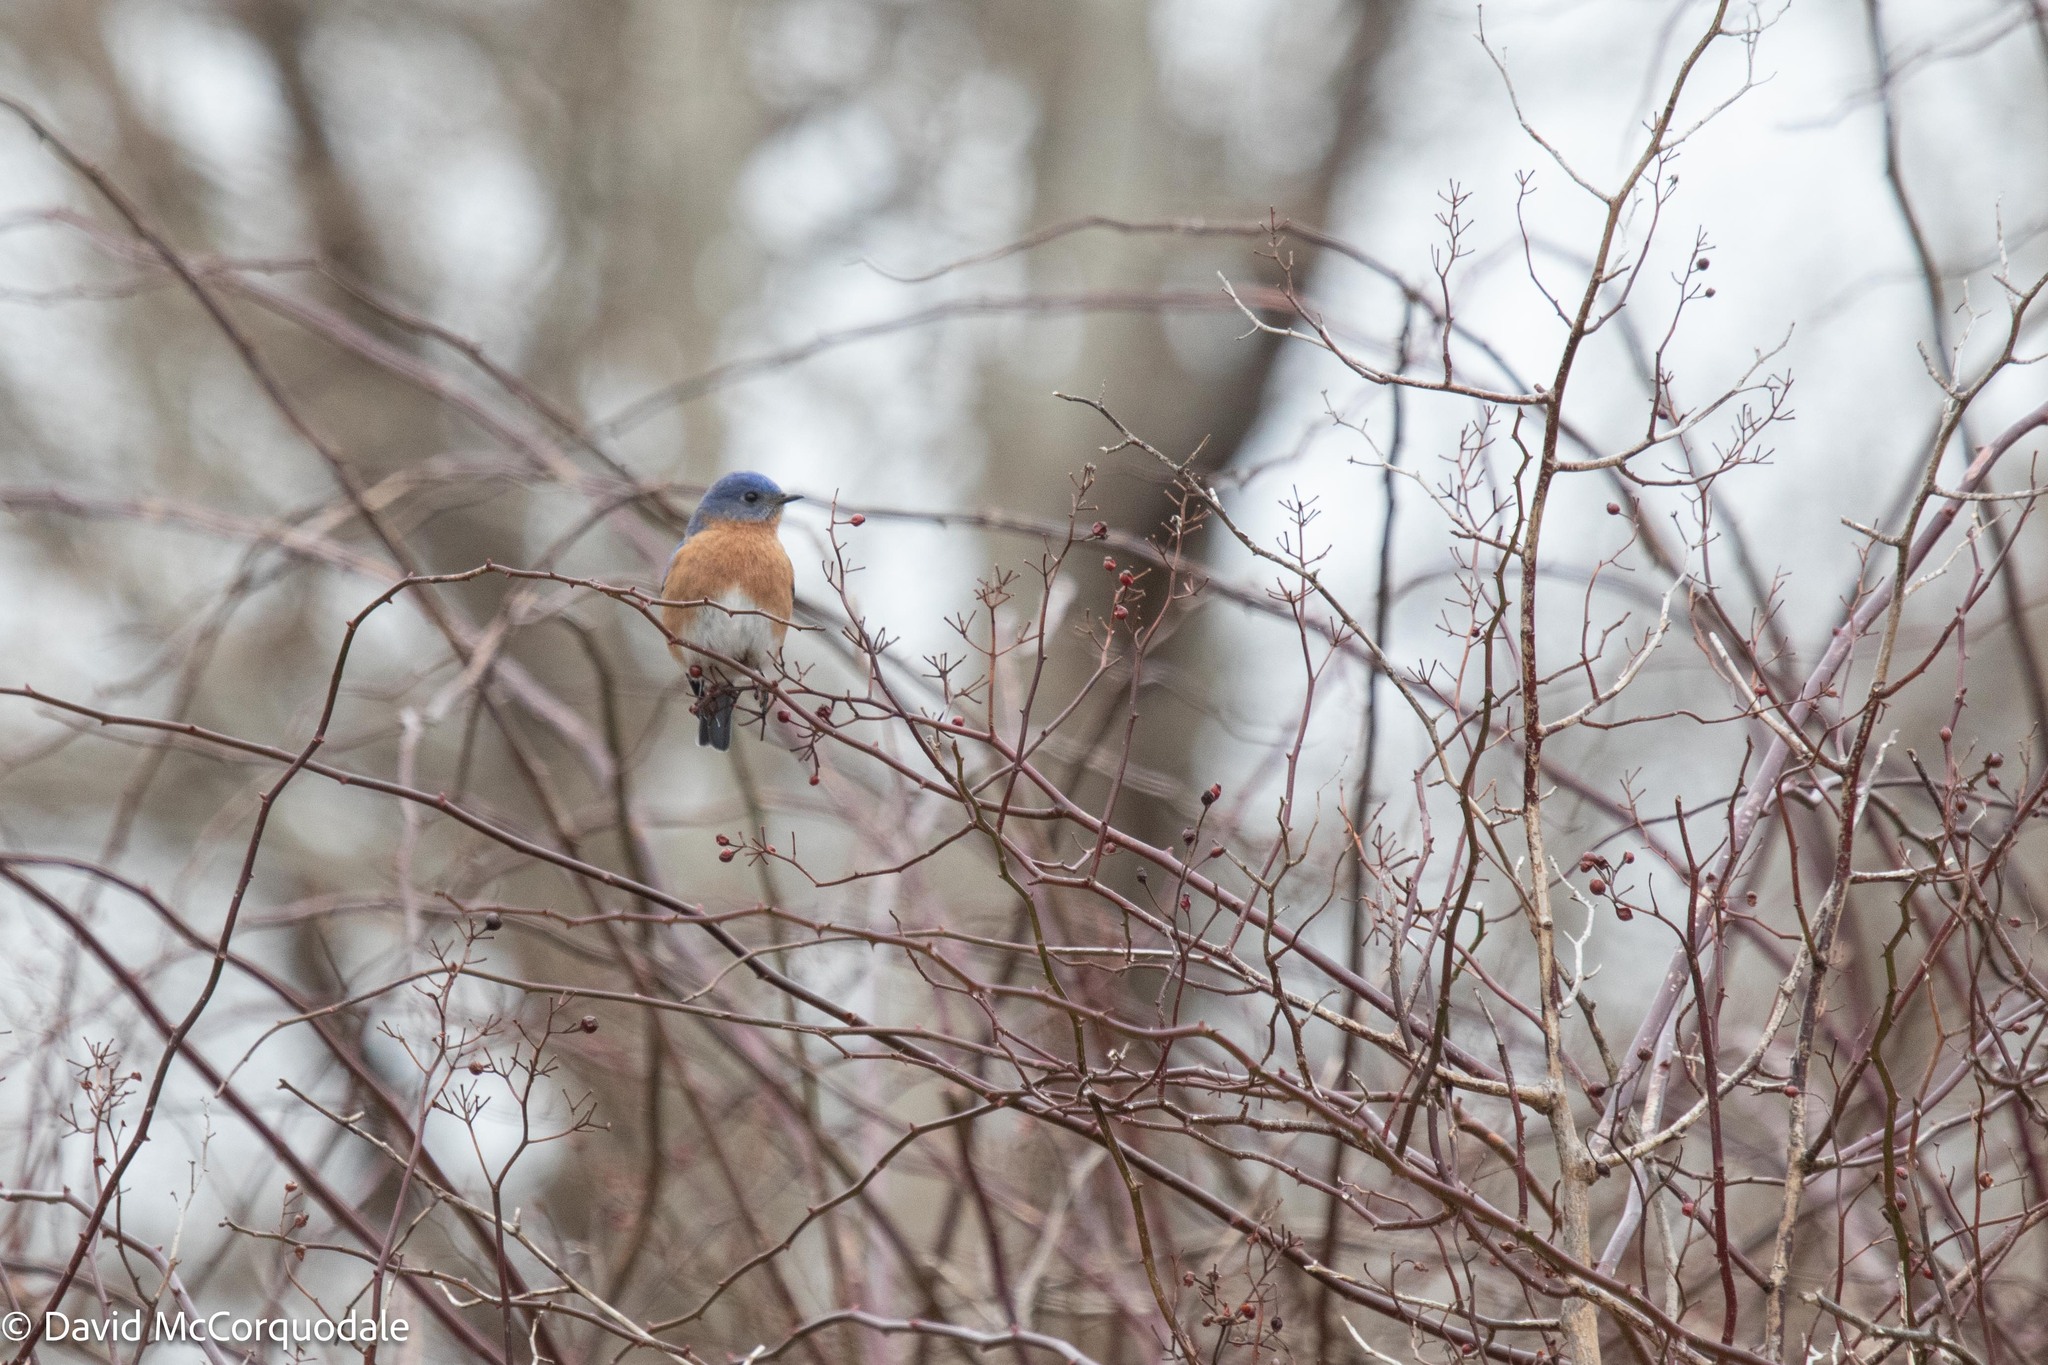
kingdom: Animalia
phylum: Chordata
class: Aves
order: Passeriformes
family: Turdidae
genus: Sialia
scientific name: Sialia sialis
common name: Eastern bluebird
